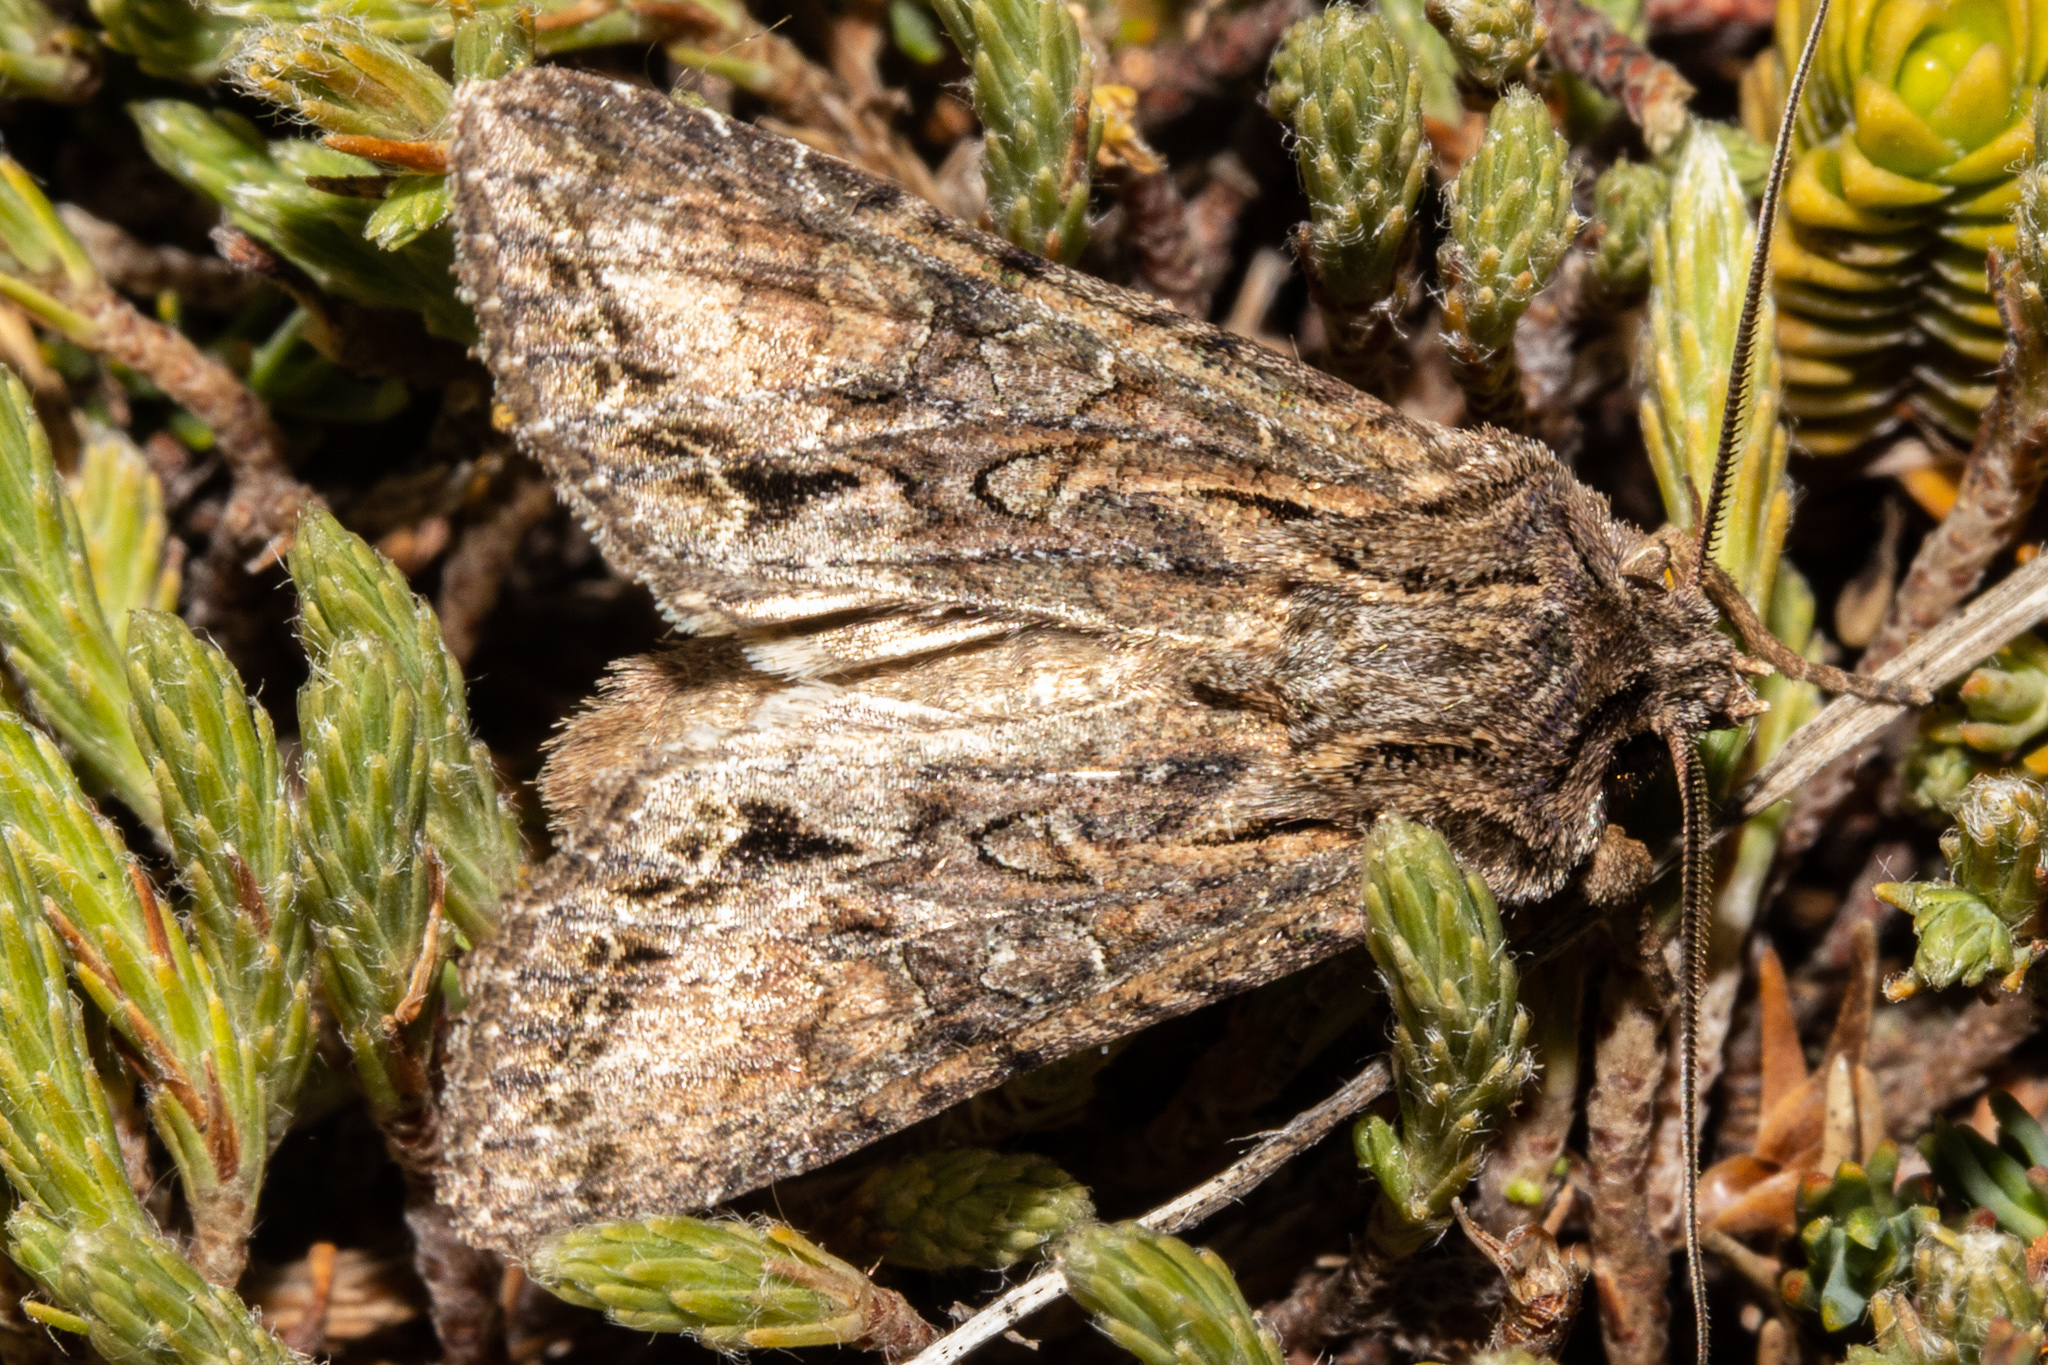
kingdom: Animalia
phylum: Arthropoda
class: Insecta
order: Lepidoptera
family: Noctuidae
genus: Ichneutica
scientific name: Ichneutica mutans
